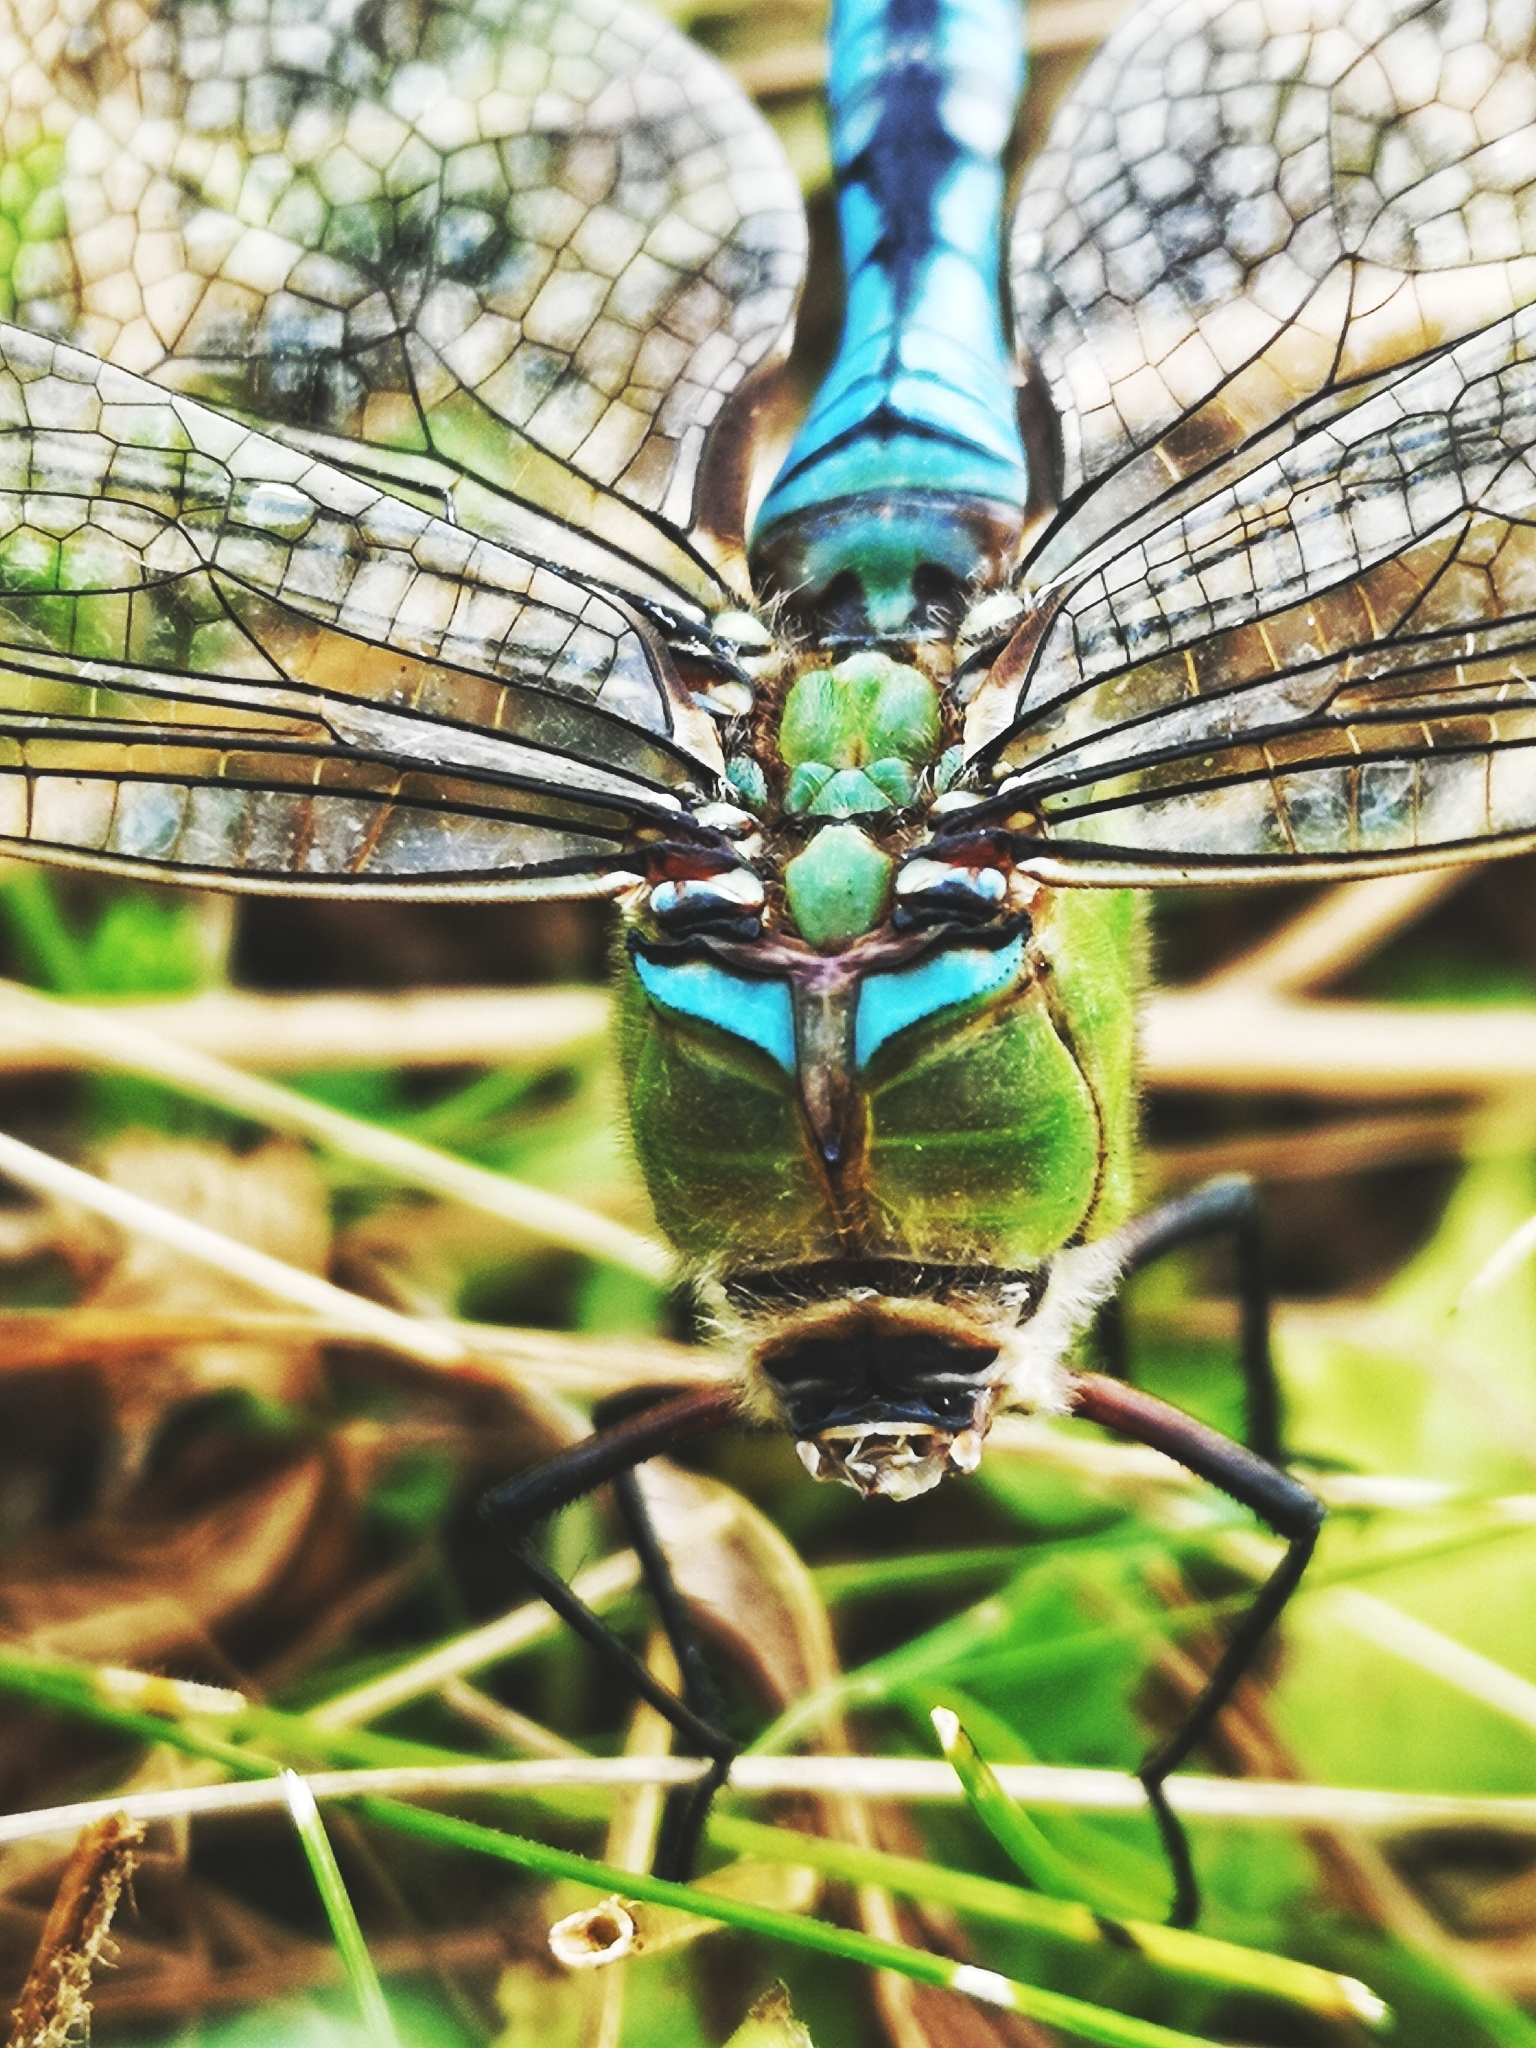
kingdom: Animalia
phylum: Arthropoda
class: Insecta
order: Odonata
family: Aeshnidae
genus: Anax
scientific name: Anax imperator
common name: Emperor dragonfly
